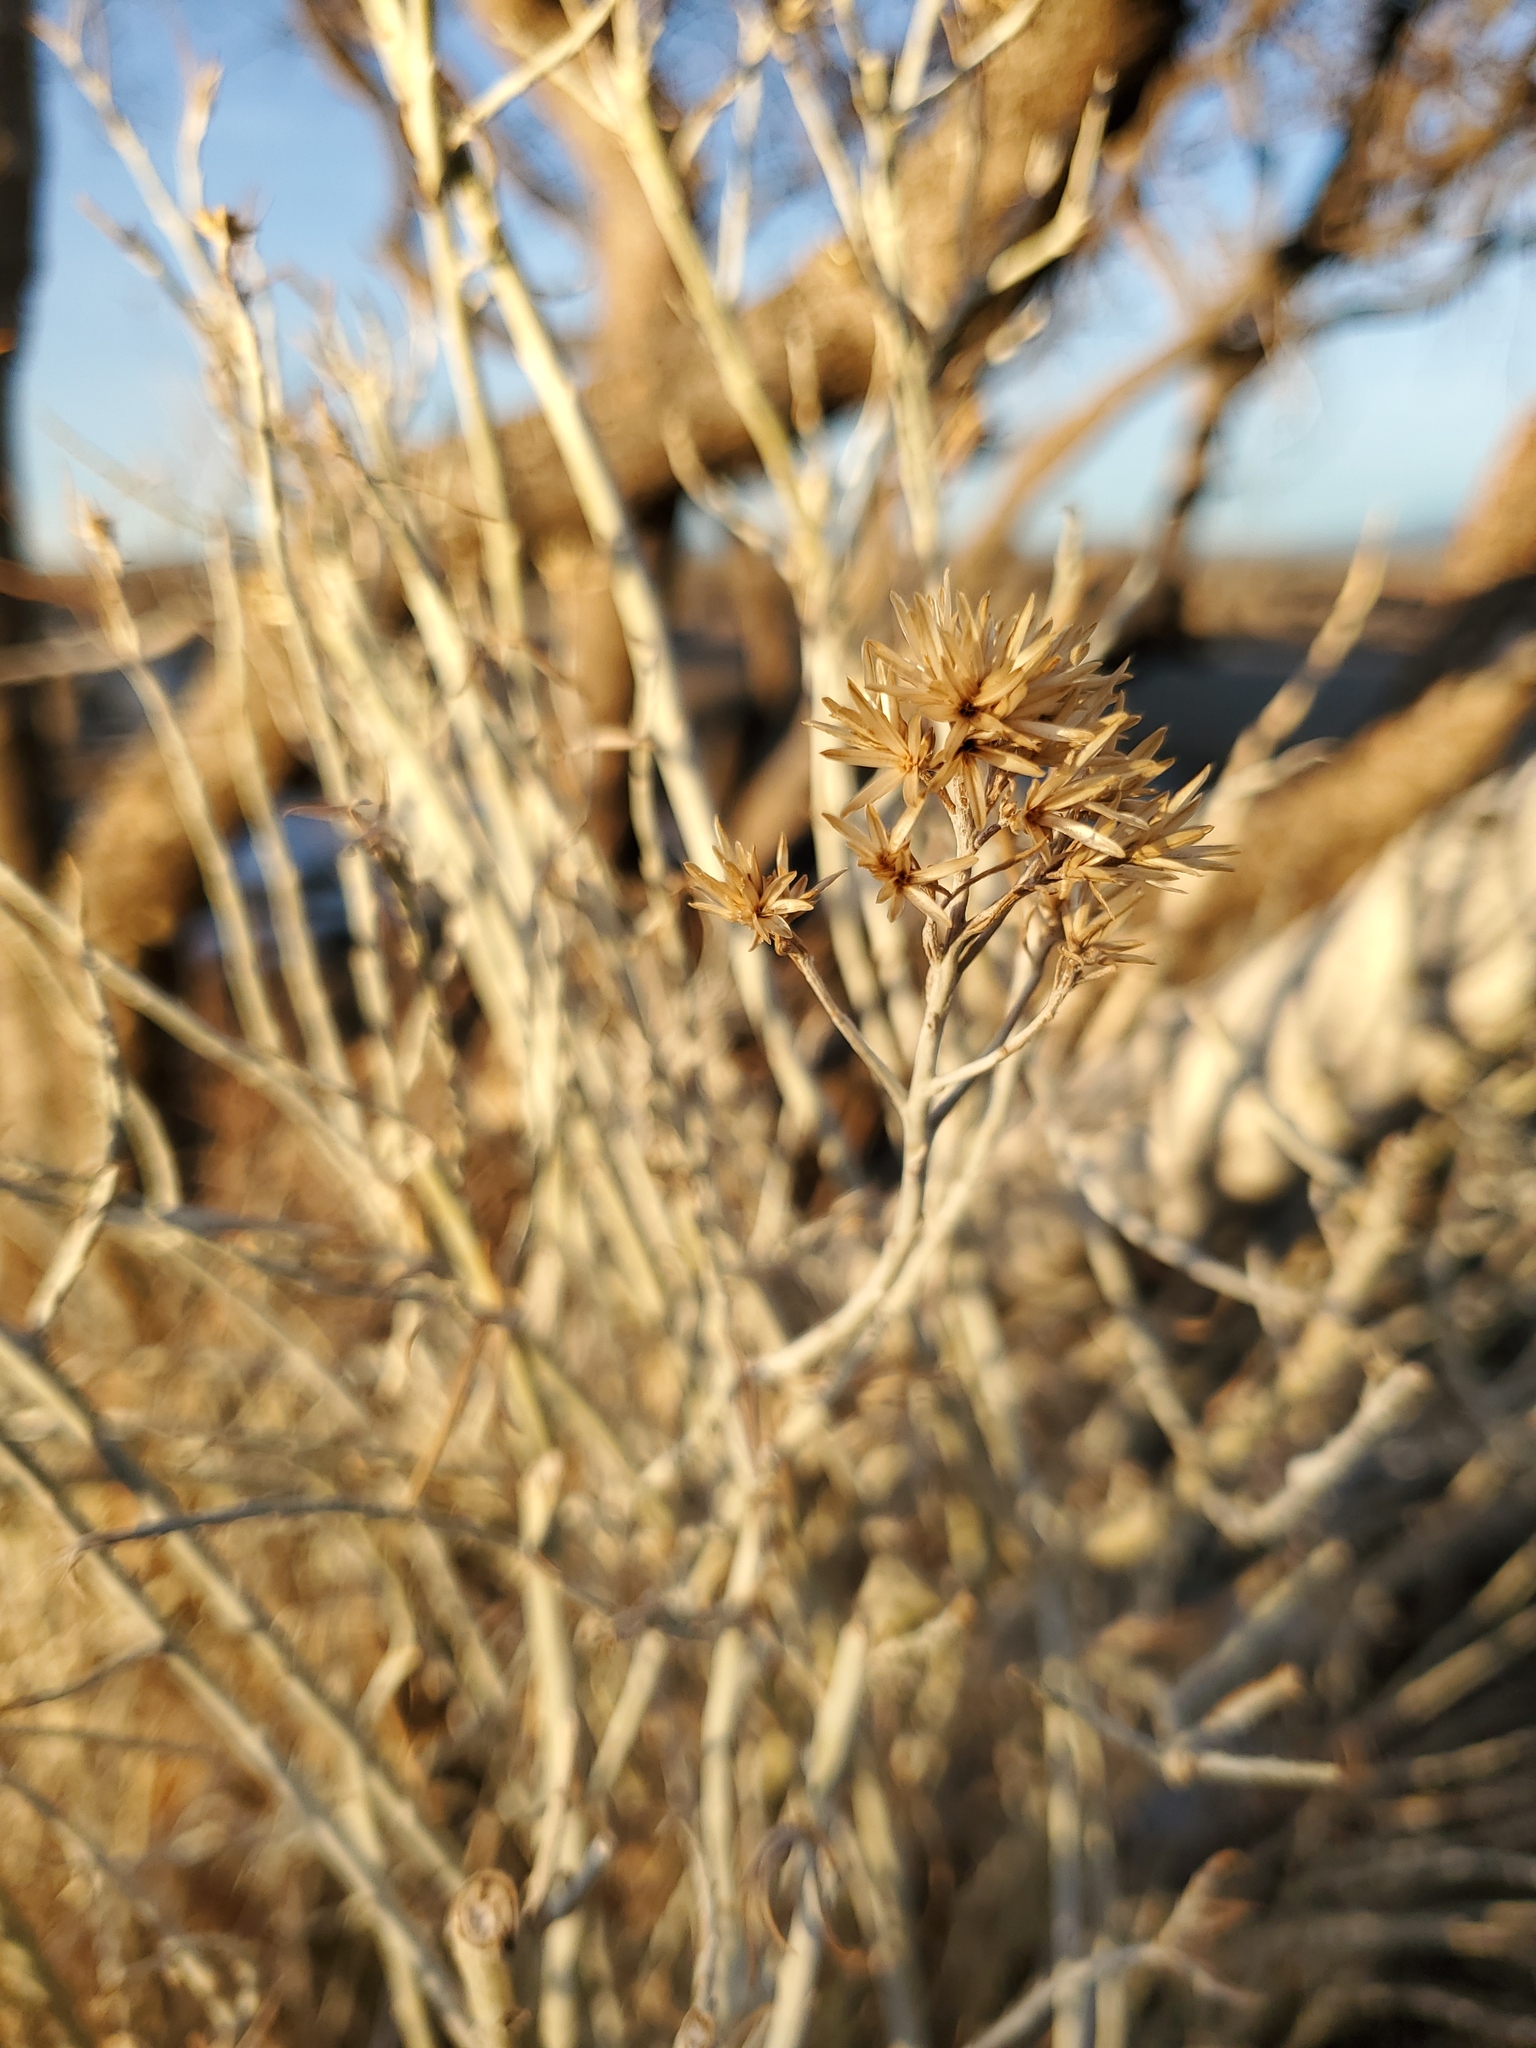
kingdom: Plantae
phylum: Tracheophyta
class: Magnoliopsida
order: Asterales
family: Asteraceae
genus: Ericameria
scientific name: Ericameria nauseosa
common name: Rubber rabbitbrush
